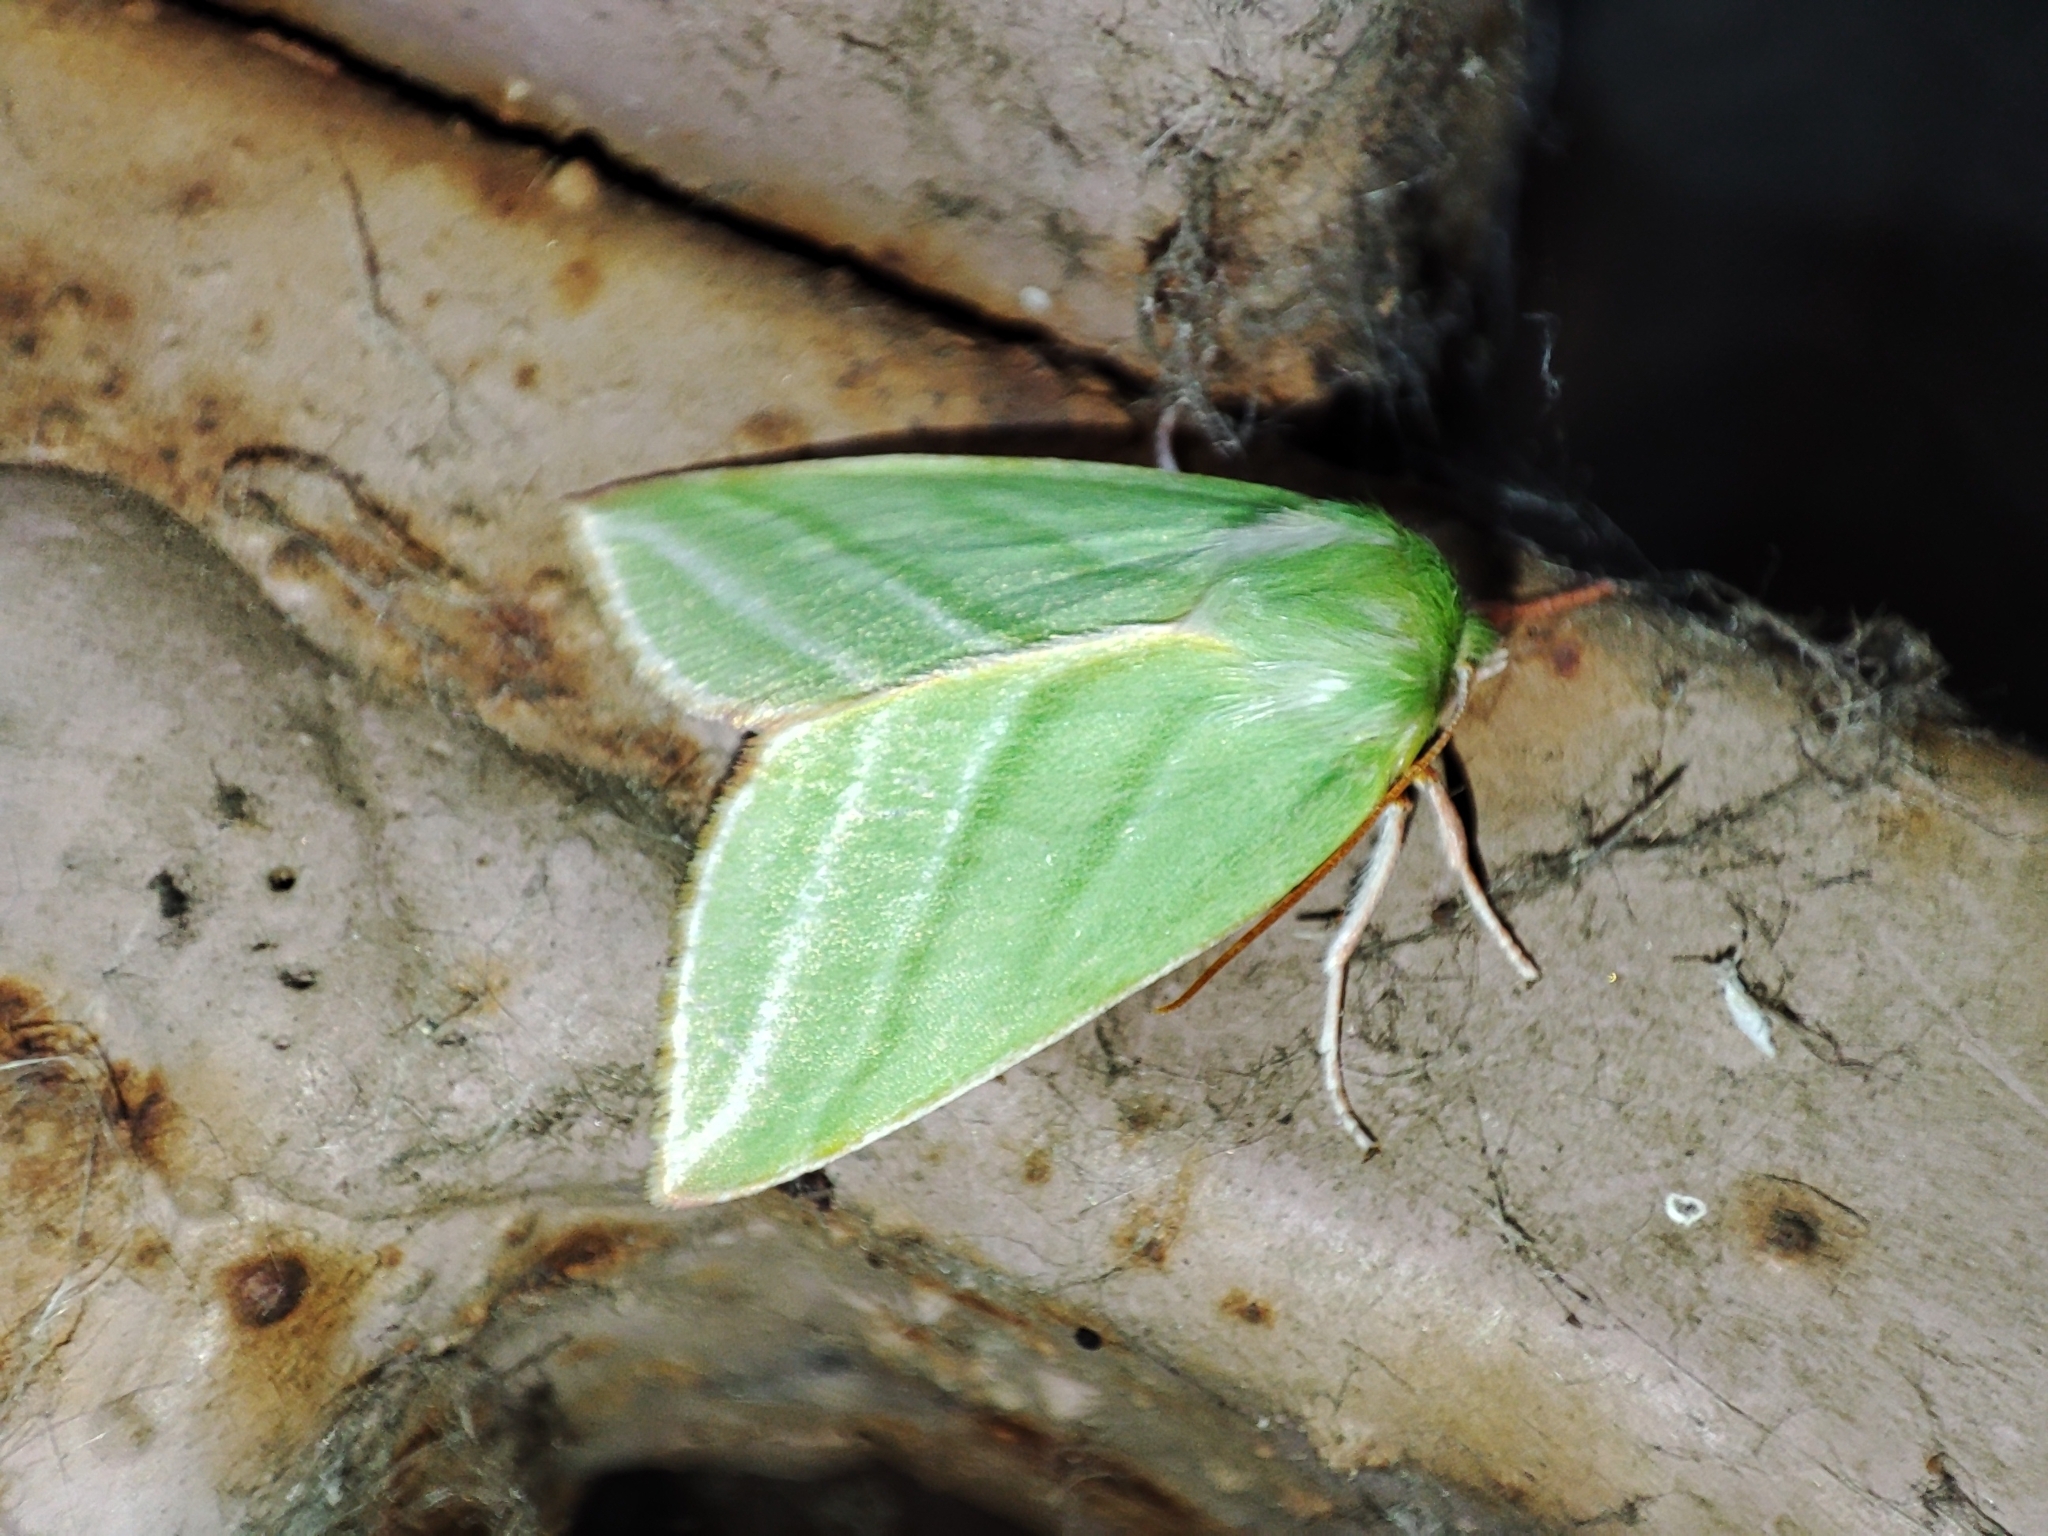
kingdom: Animalia
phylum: Arthropoda
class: Insecta
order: Lepidoptera
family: Nolidae
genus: Pseudoips
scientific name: Pseudoips prasinana
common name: Green silver-lines
